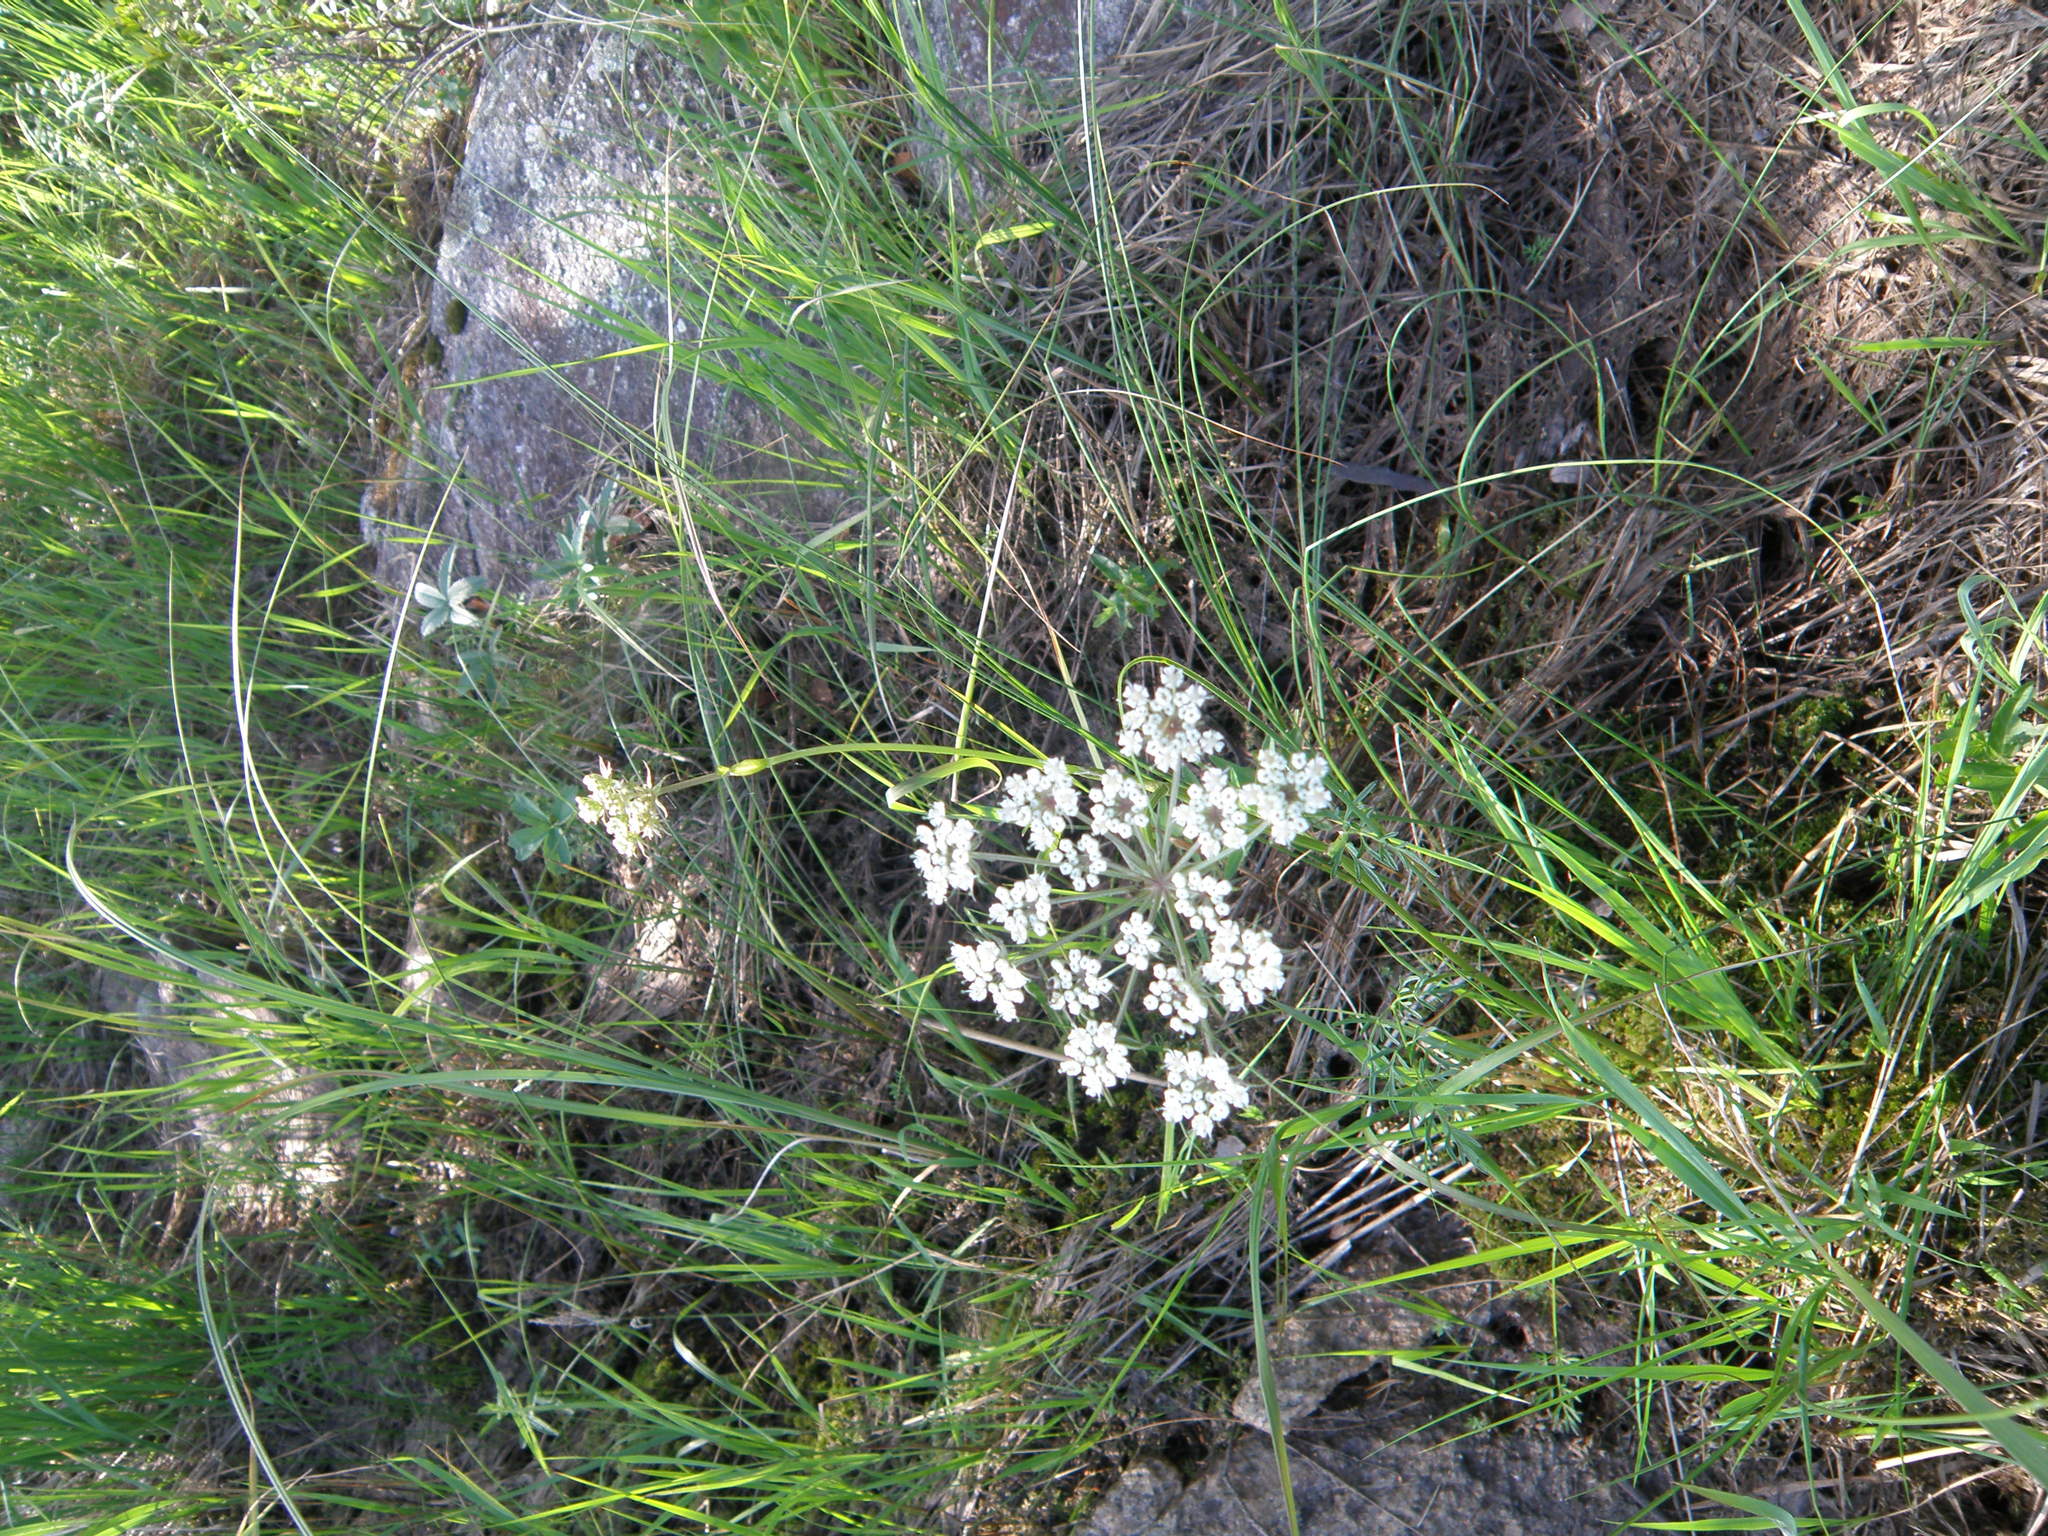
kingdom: Plantae
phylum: Tracheophyta
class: Magnoliopsida
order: Apiales
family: Apiaceae
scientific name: Apiaceae
